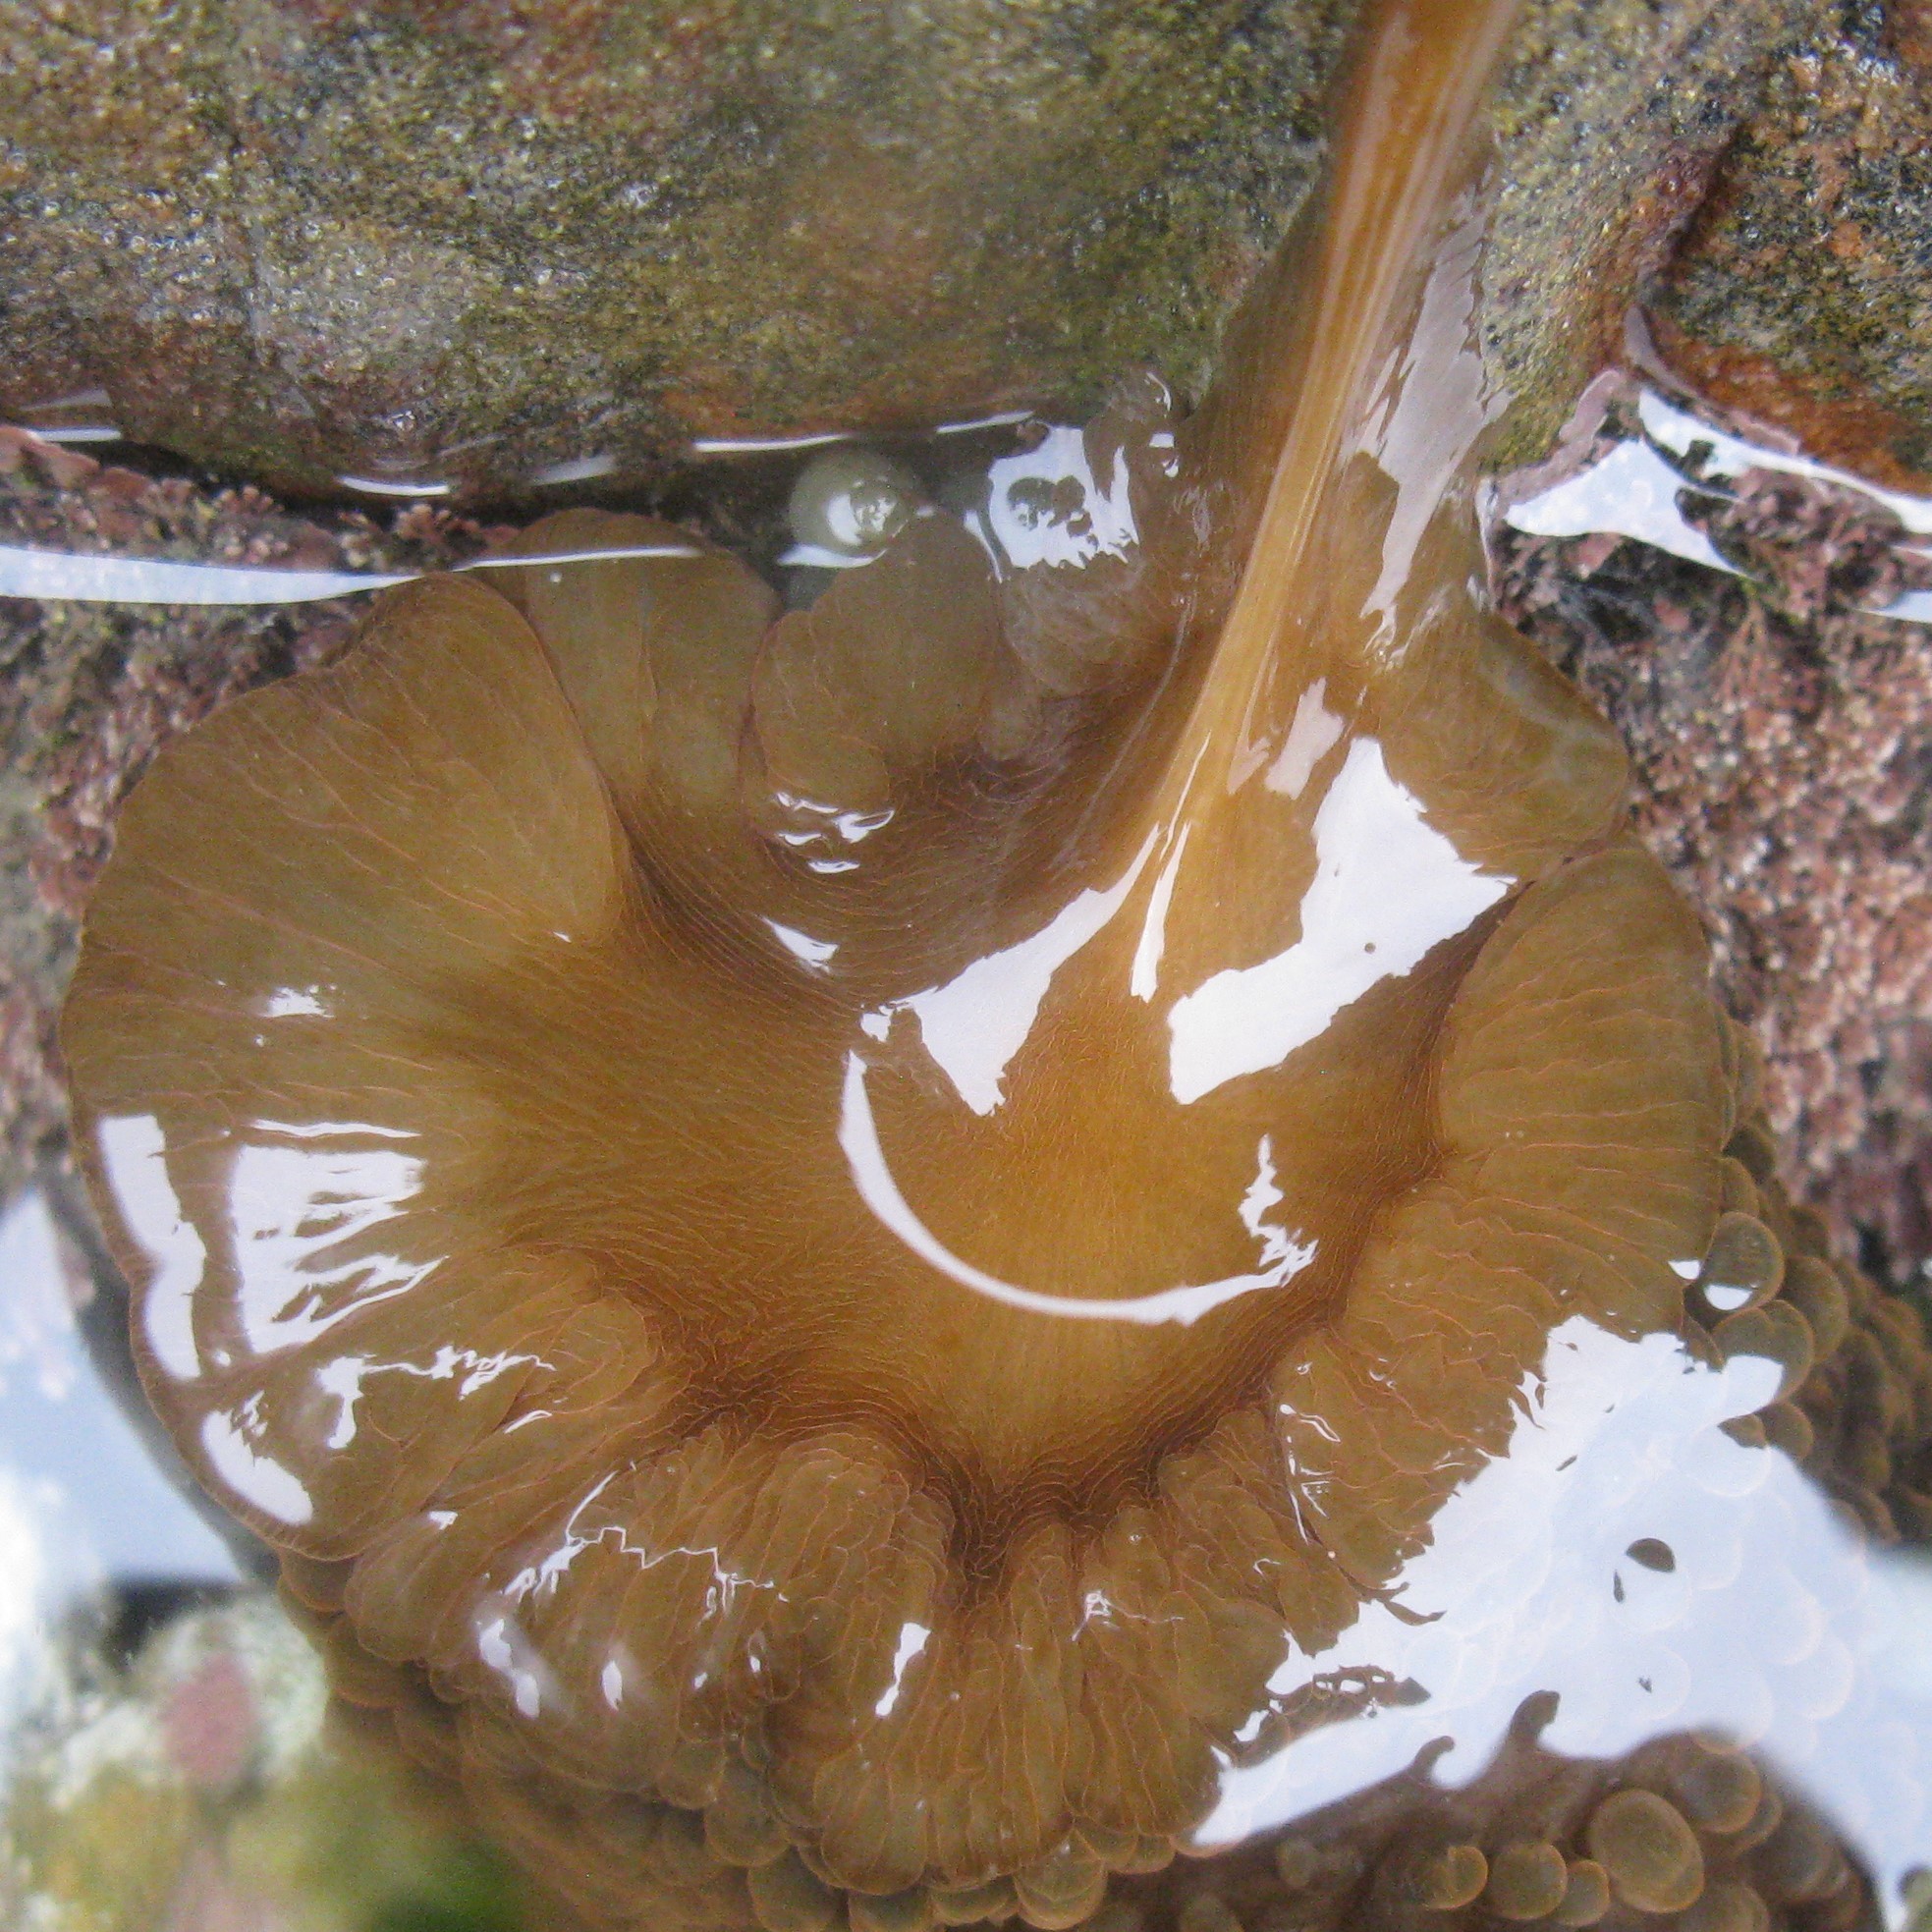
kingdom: Animalia
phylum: Cnidaria
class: Anthozoa
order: Actiniaria
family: Actiniidae
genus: Phlyctenactis
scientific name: Phlyctenactis tuberculosa
